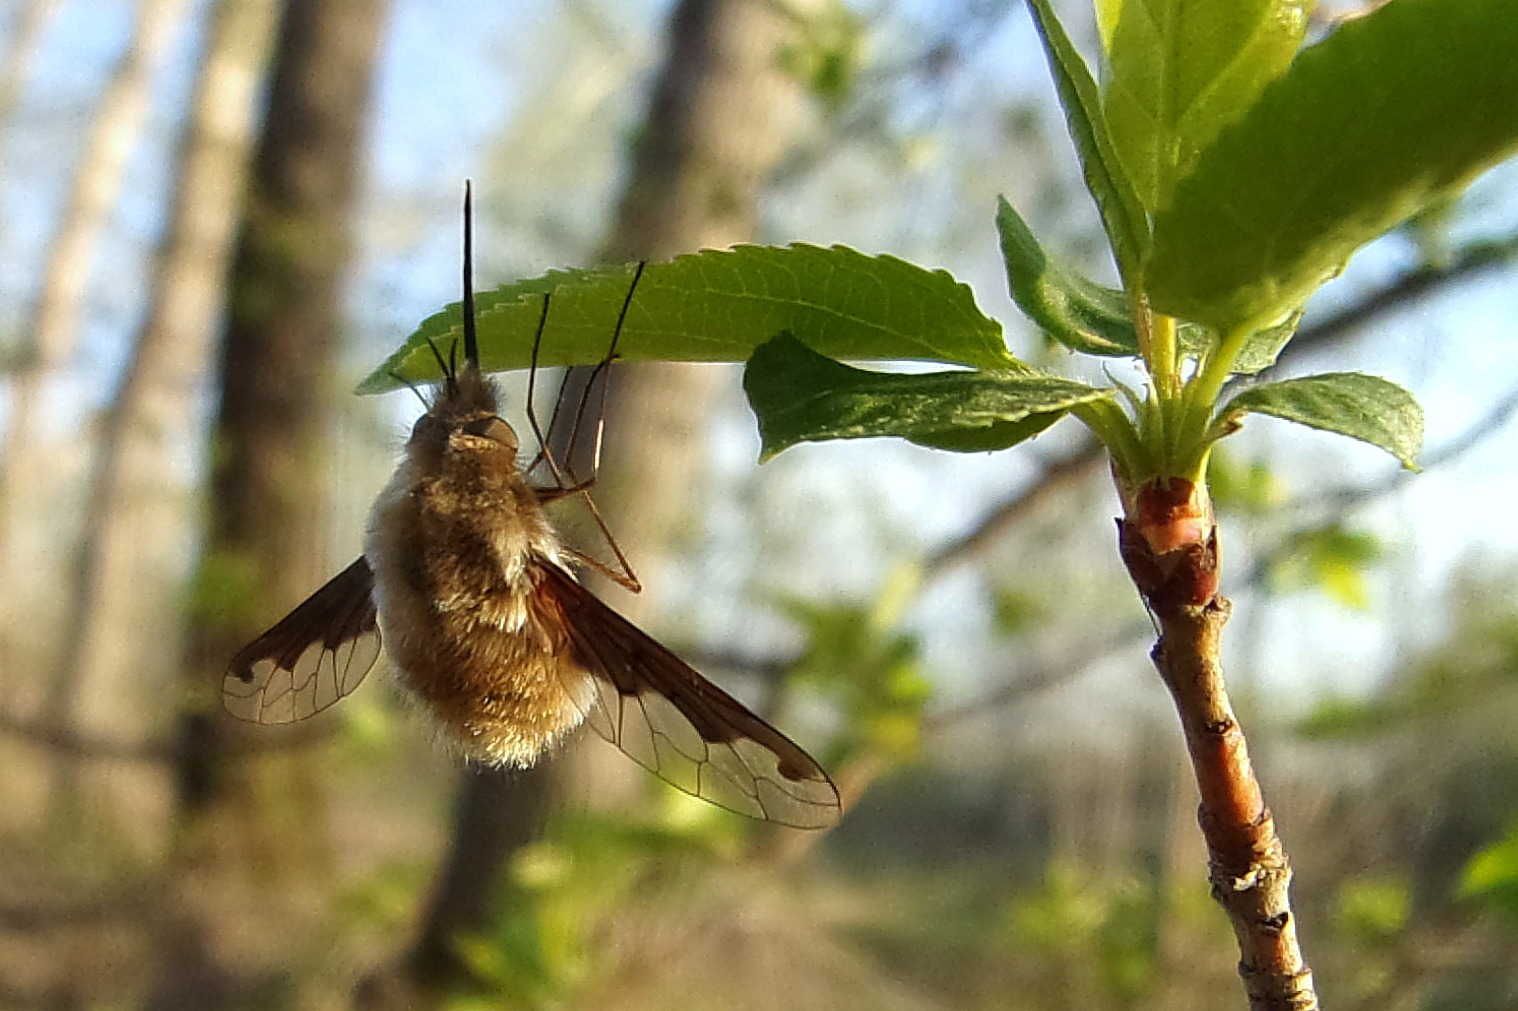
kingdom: Animalia
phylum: Arthropoda
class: Insecta
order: Diptera
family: Bombyliidae
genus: Bombylius
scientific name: Bombylius major
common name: Bee fly
